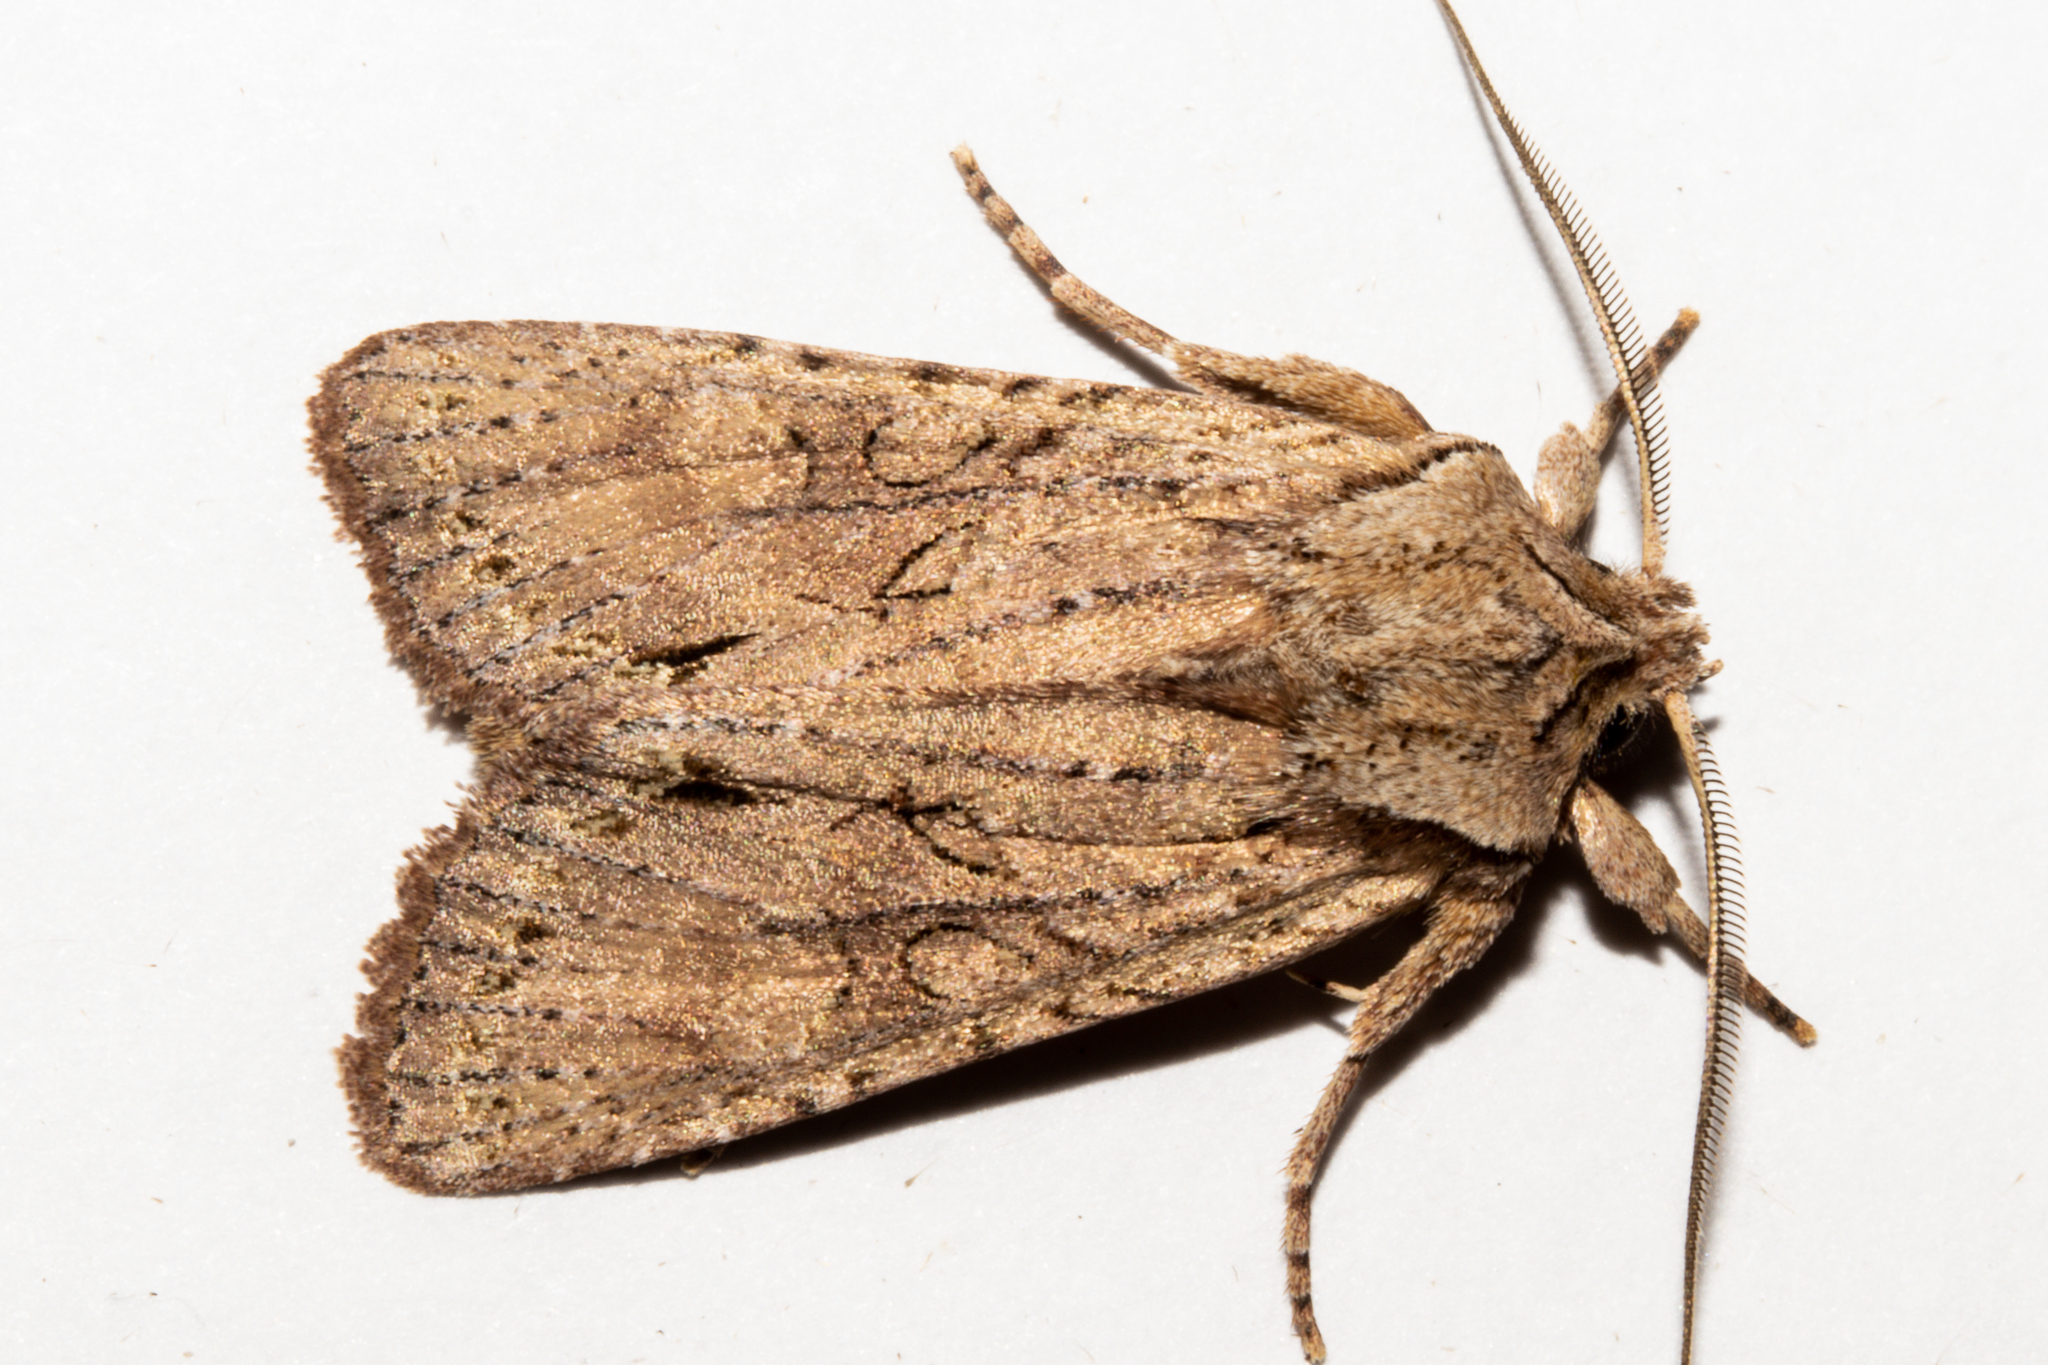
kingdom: Animalia
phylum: Arthropoda
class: Insecta
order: Lepidoptera
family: Noctuidae
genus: Ichneutica
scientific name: Ichneutica
